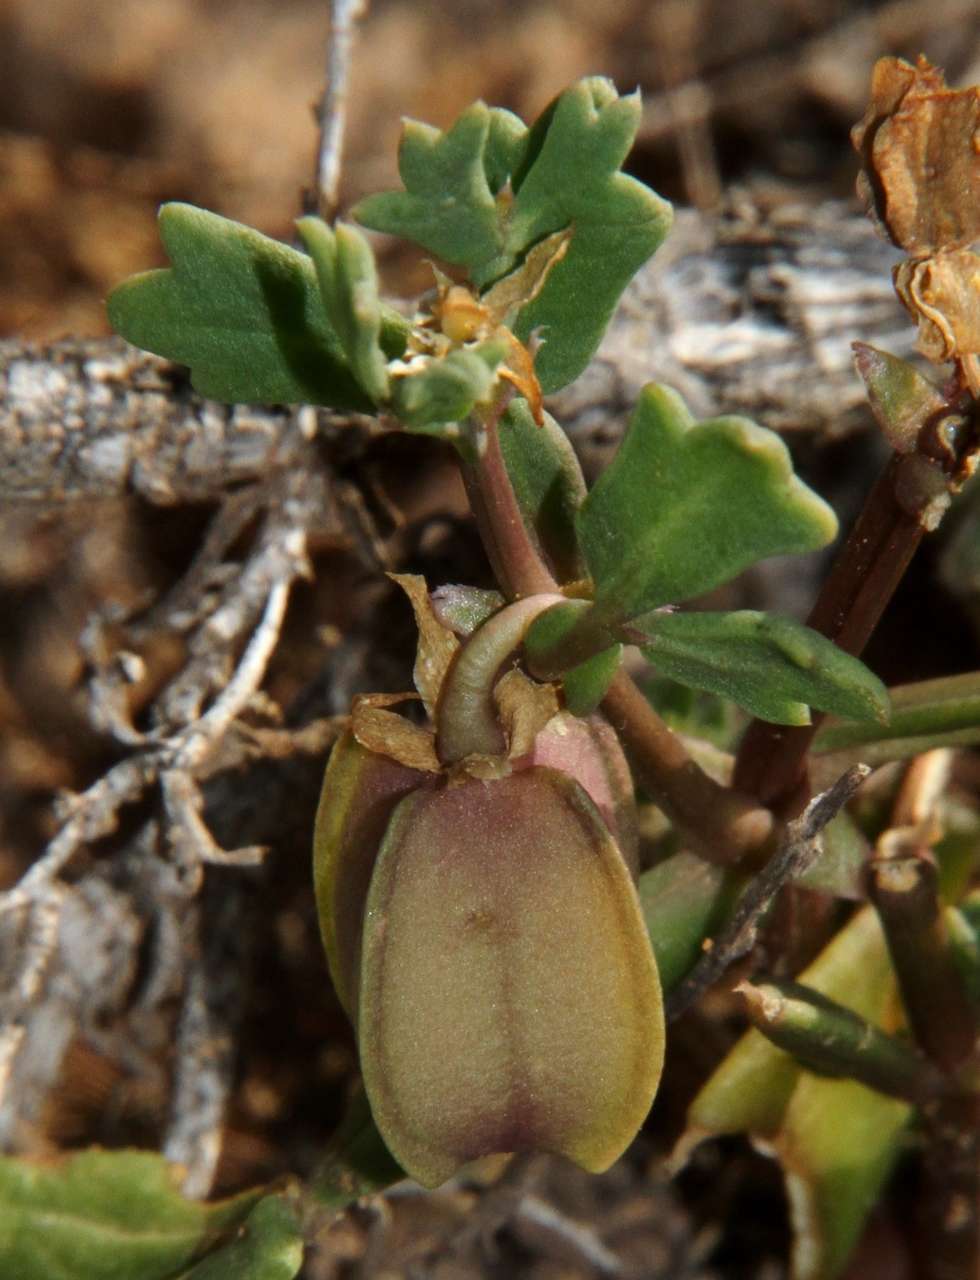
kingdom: Plantae
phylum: Tracheophyta
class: Magnoliopsida
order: Zygophyllales
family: Zygophyllaceae
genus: Roepera
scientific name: Roepera crenata
